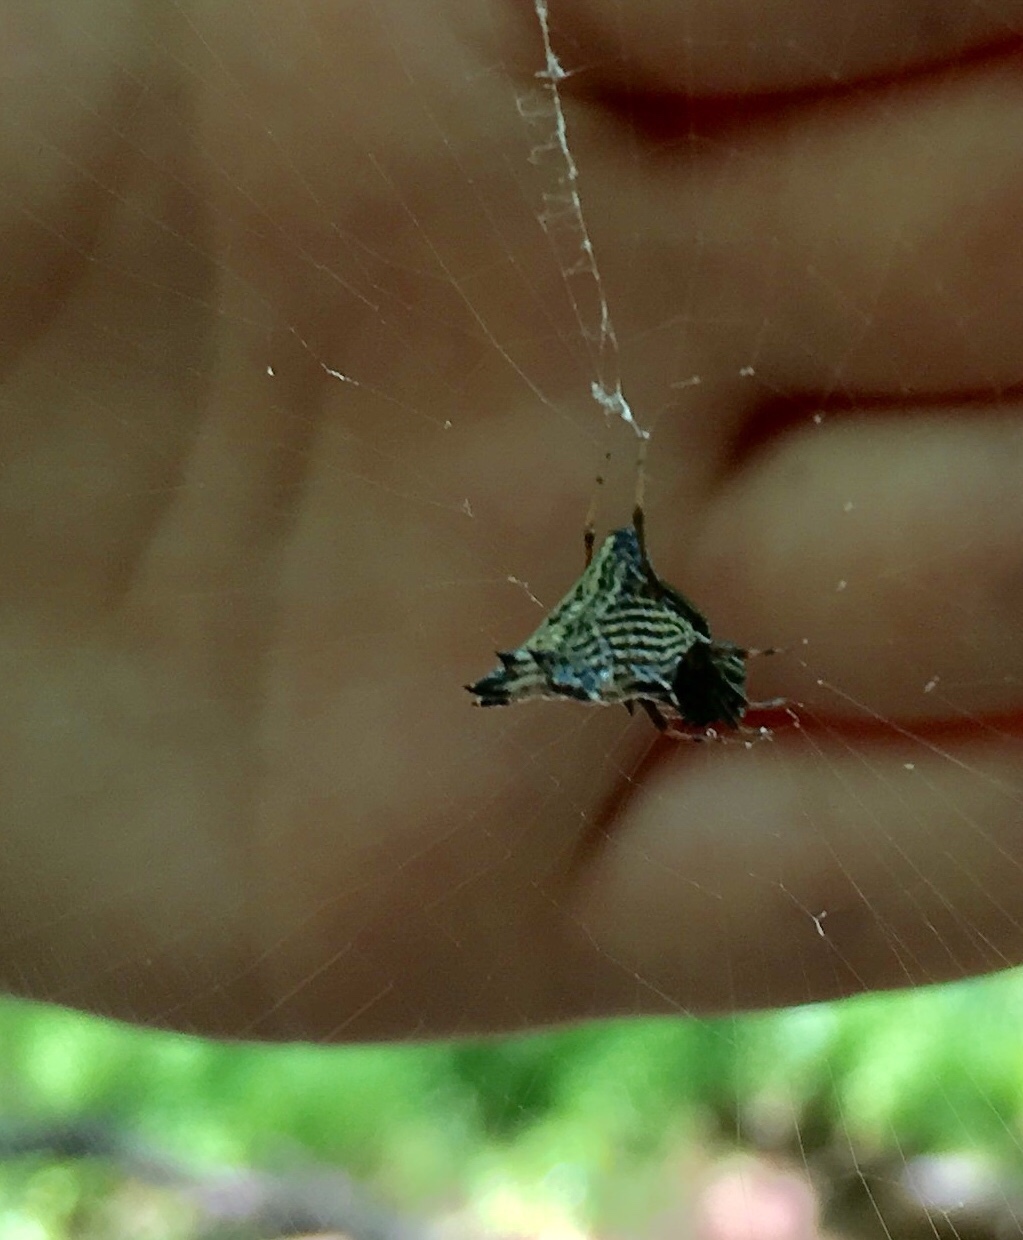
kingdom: Animalia
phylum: Arthropoda
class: Arachnida
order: Araneae
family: Araneidae
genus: Micrathena
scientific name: Micrathena gracilis
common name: Orb weavers
